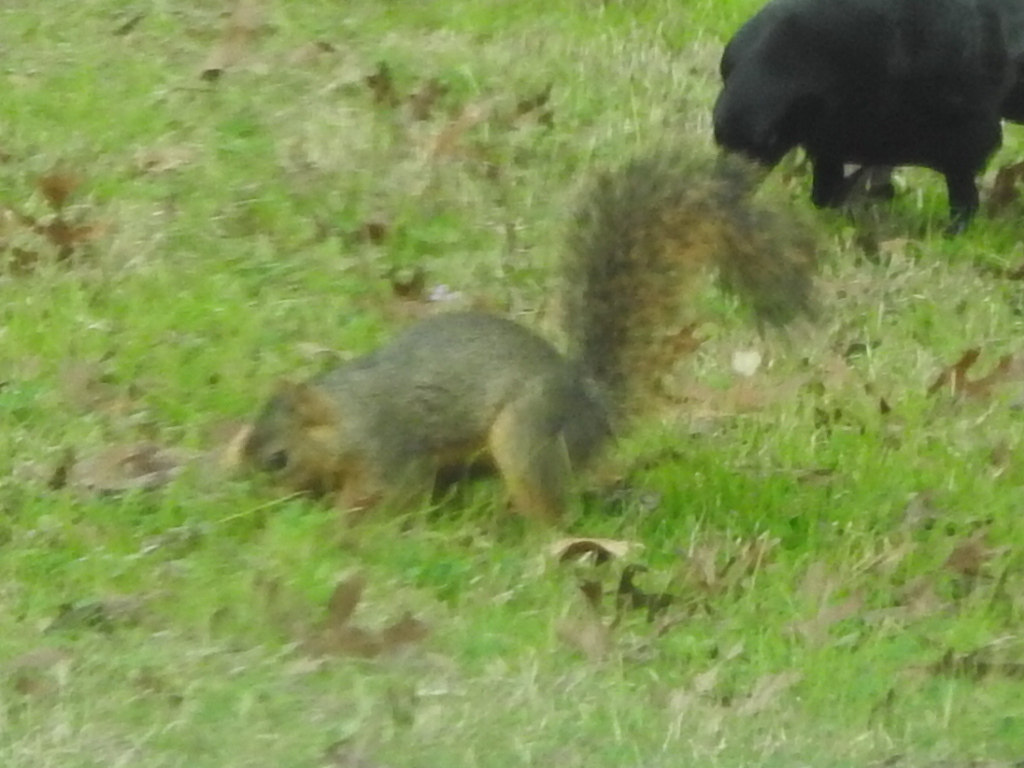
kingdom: Animalia
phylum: Chordata
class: Mammalia
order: Rodentia
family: Sciuridae
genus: Sciurus
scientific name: Sciurus niger
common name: Fox squirrel
